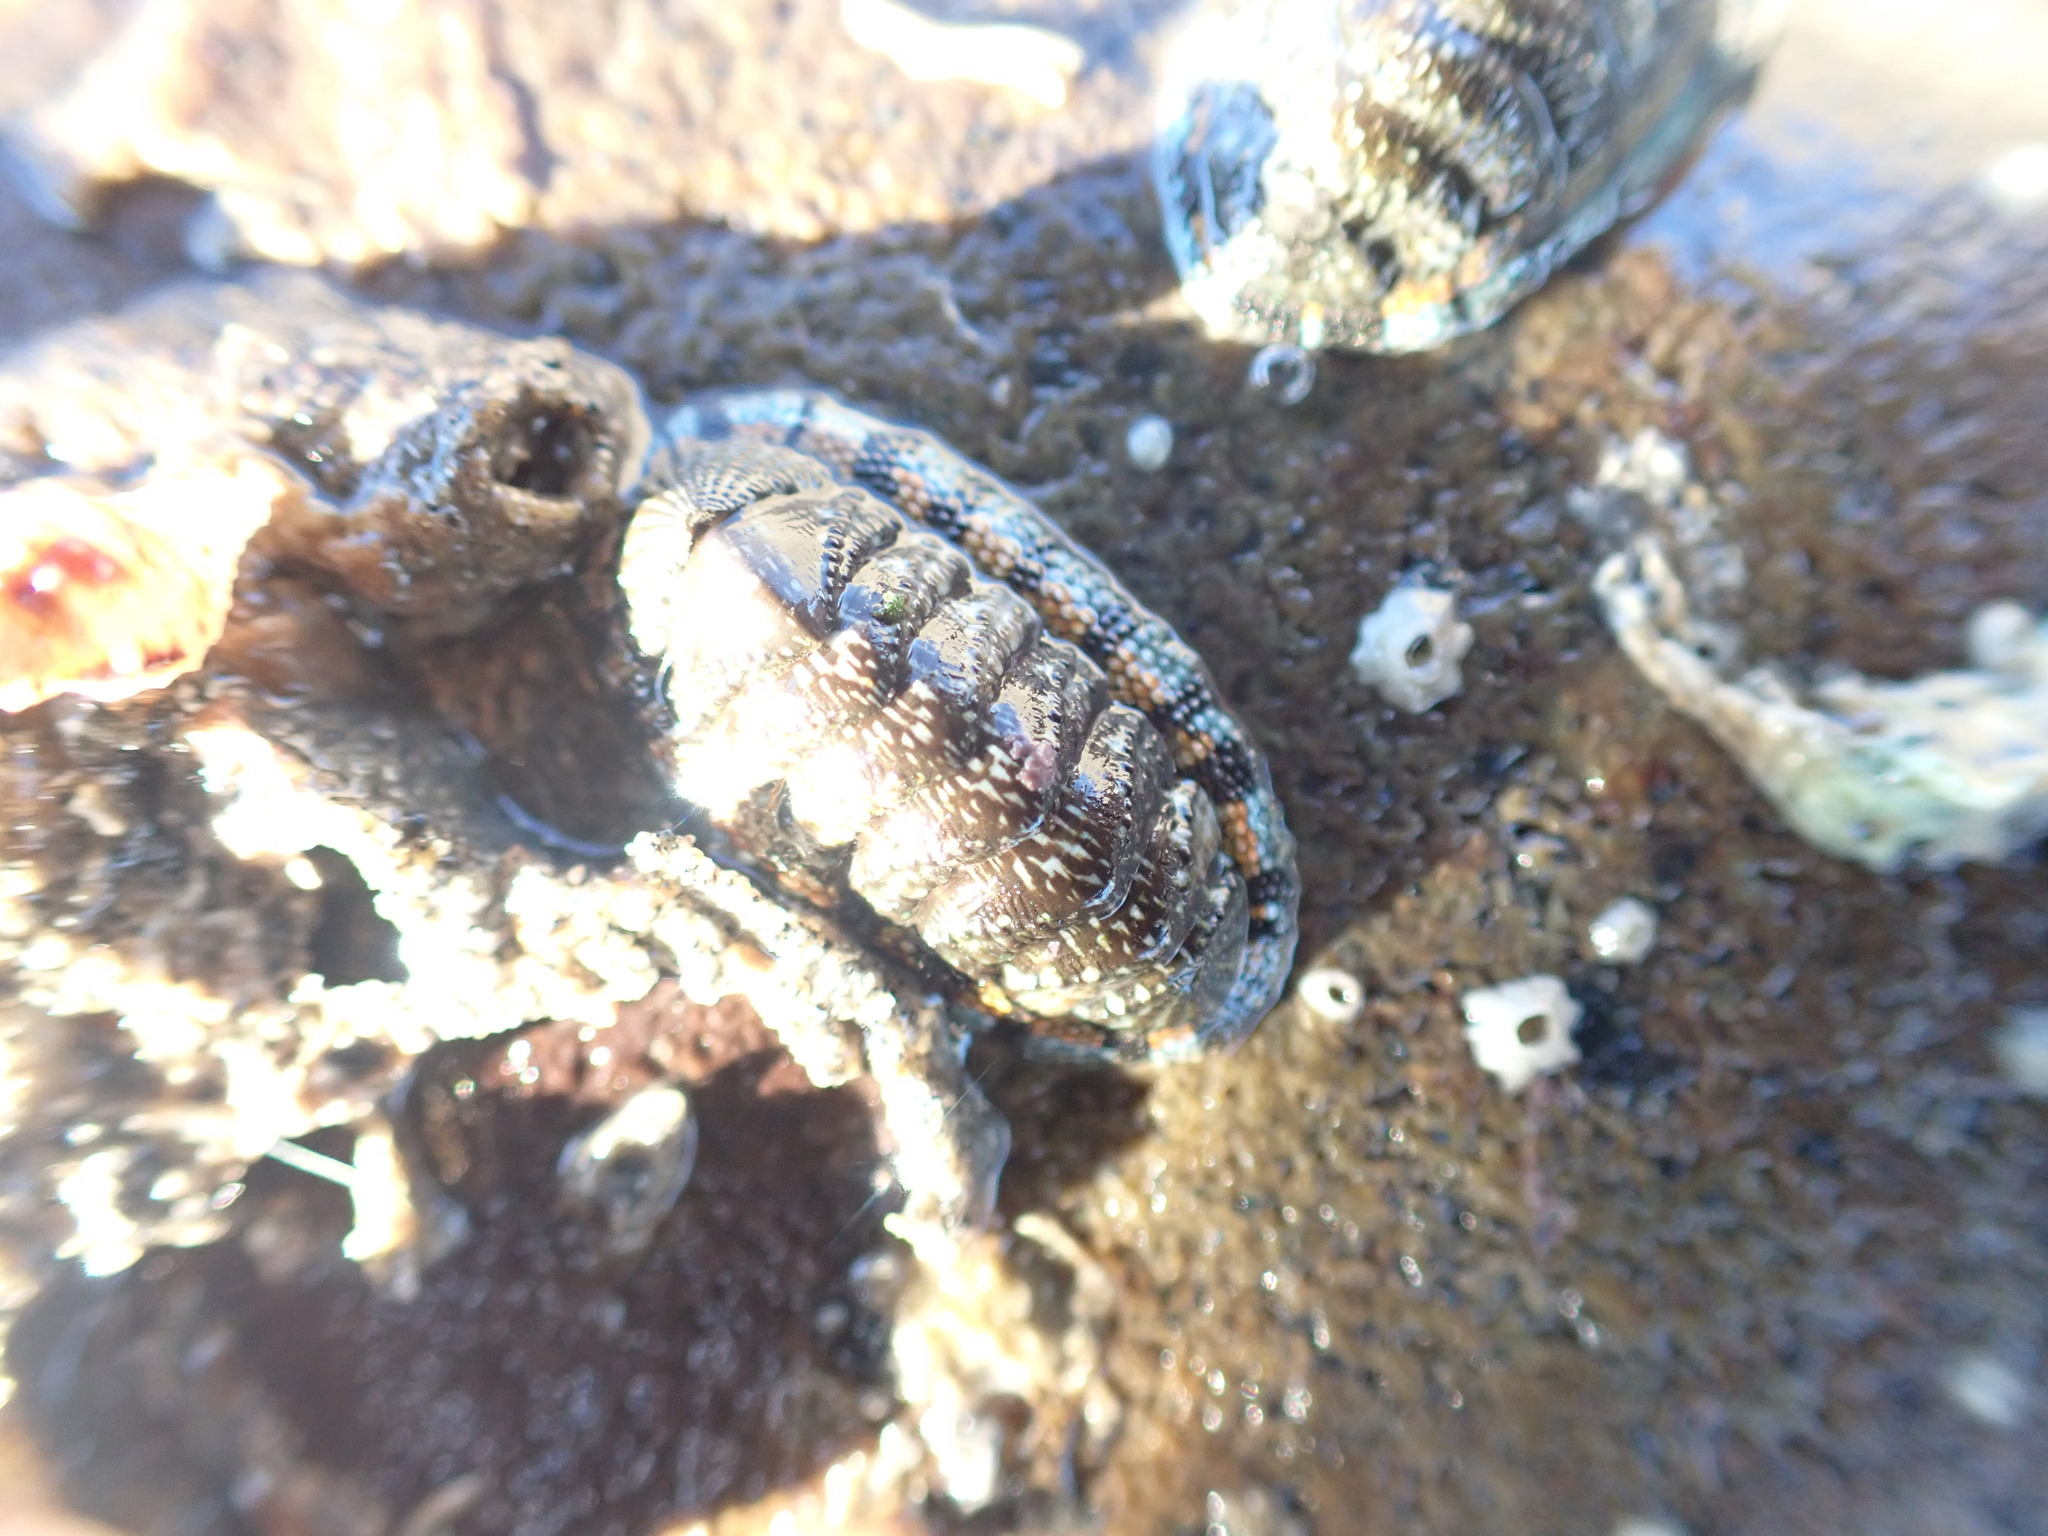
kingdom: Animalia
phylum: Mollusca
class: Polyplacophora
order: Chitonida
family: Chitonidae
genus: Sypharochiton
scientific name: Sypharochiton sinclairi
